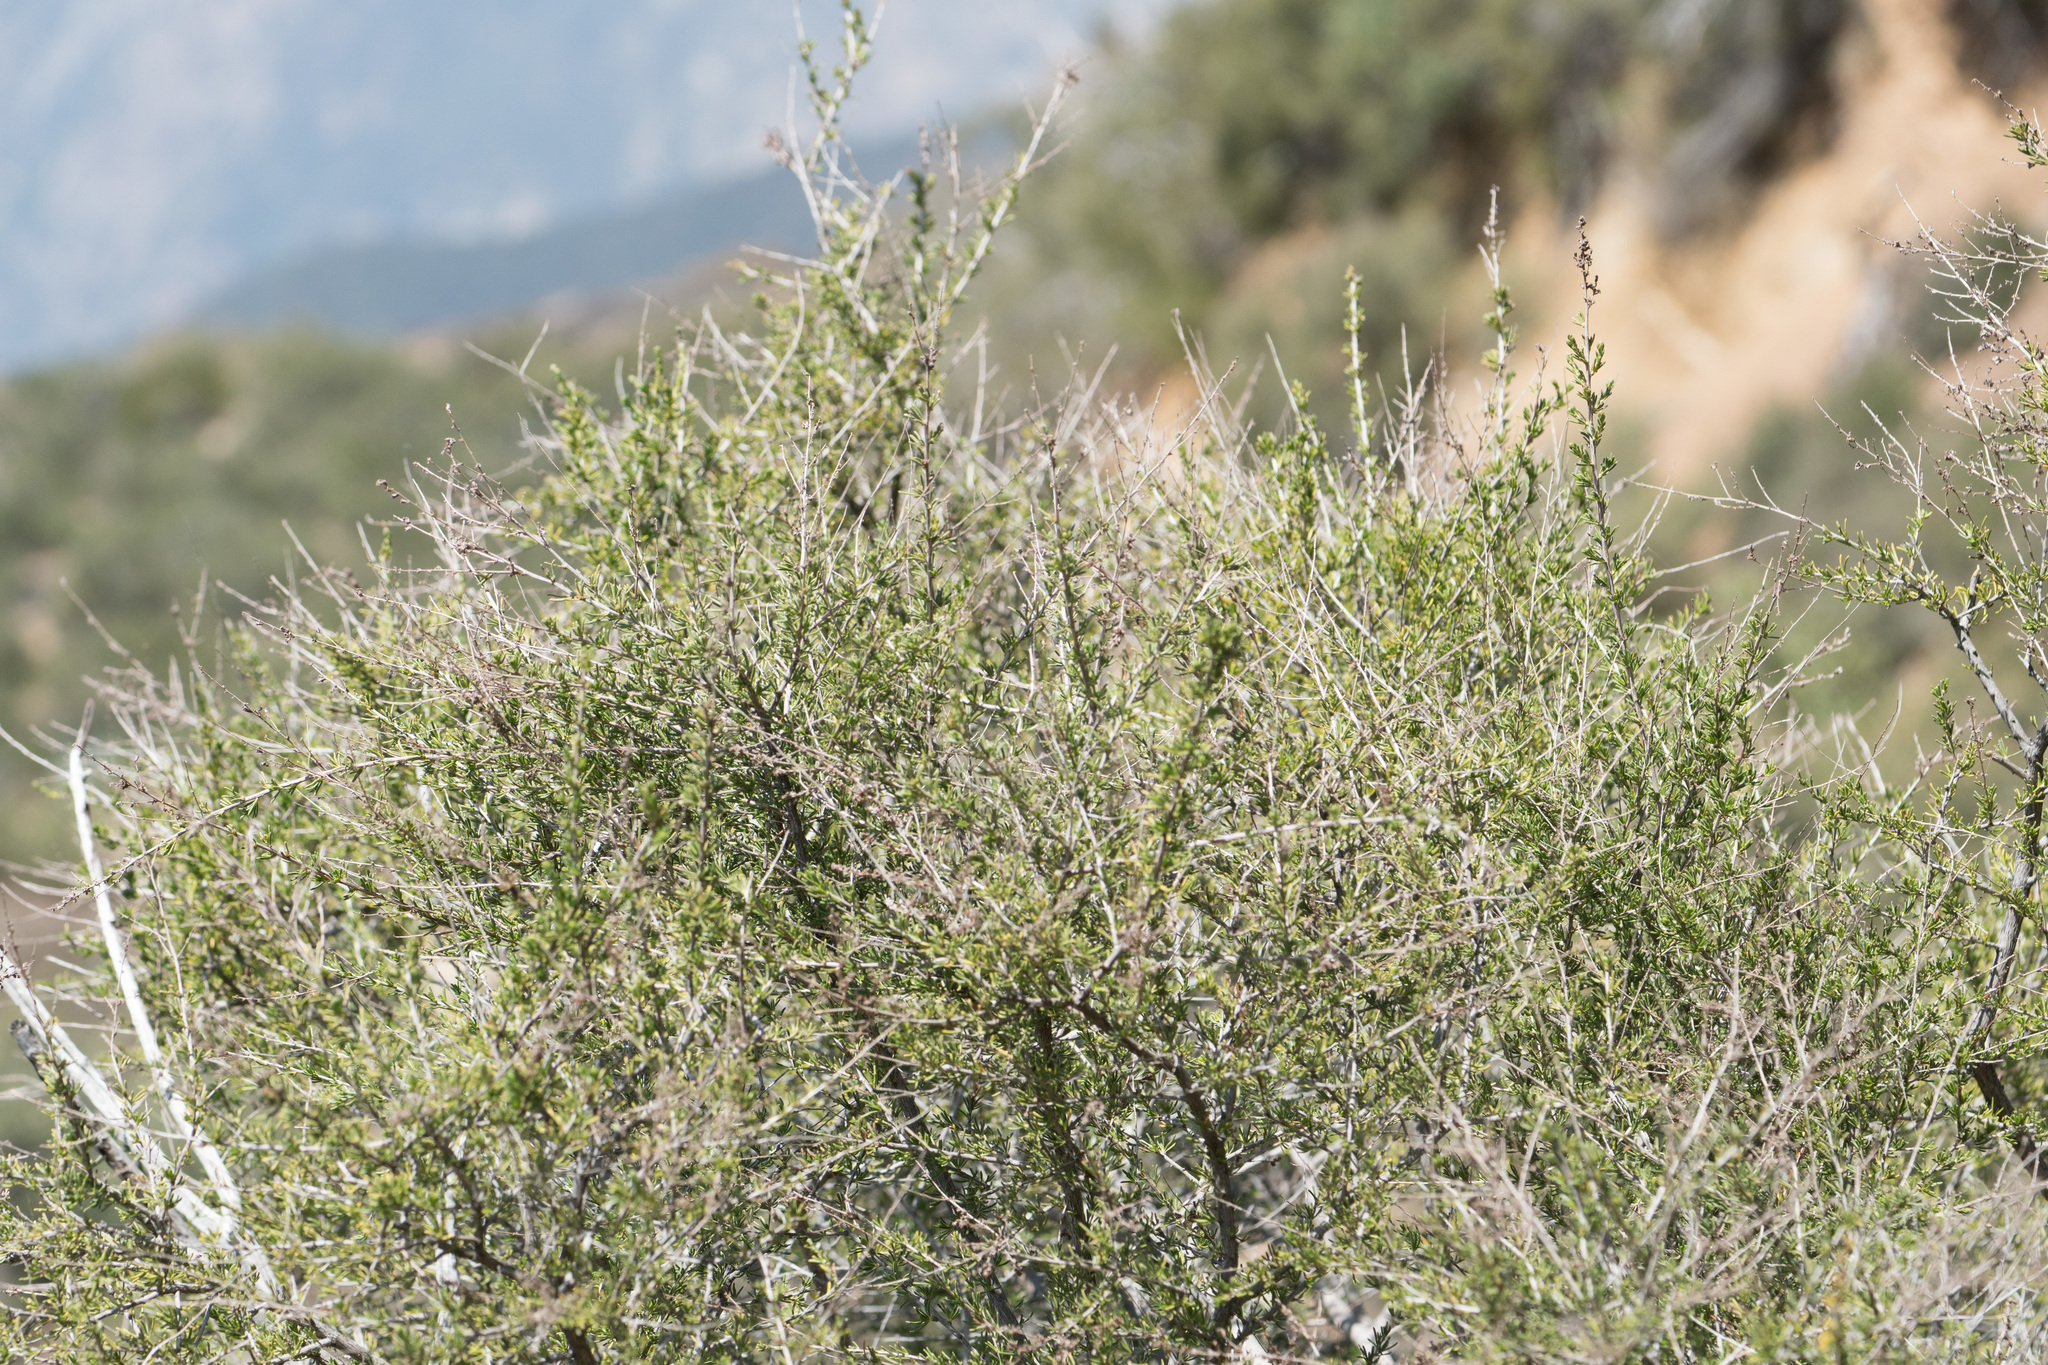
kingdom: Plantae
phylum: Tracheophyta
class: Magnoliopsida
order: Rosales
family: Rosaceae
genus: Adenostoma
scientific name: Adenostoma fasciculatum
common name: Chamise
